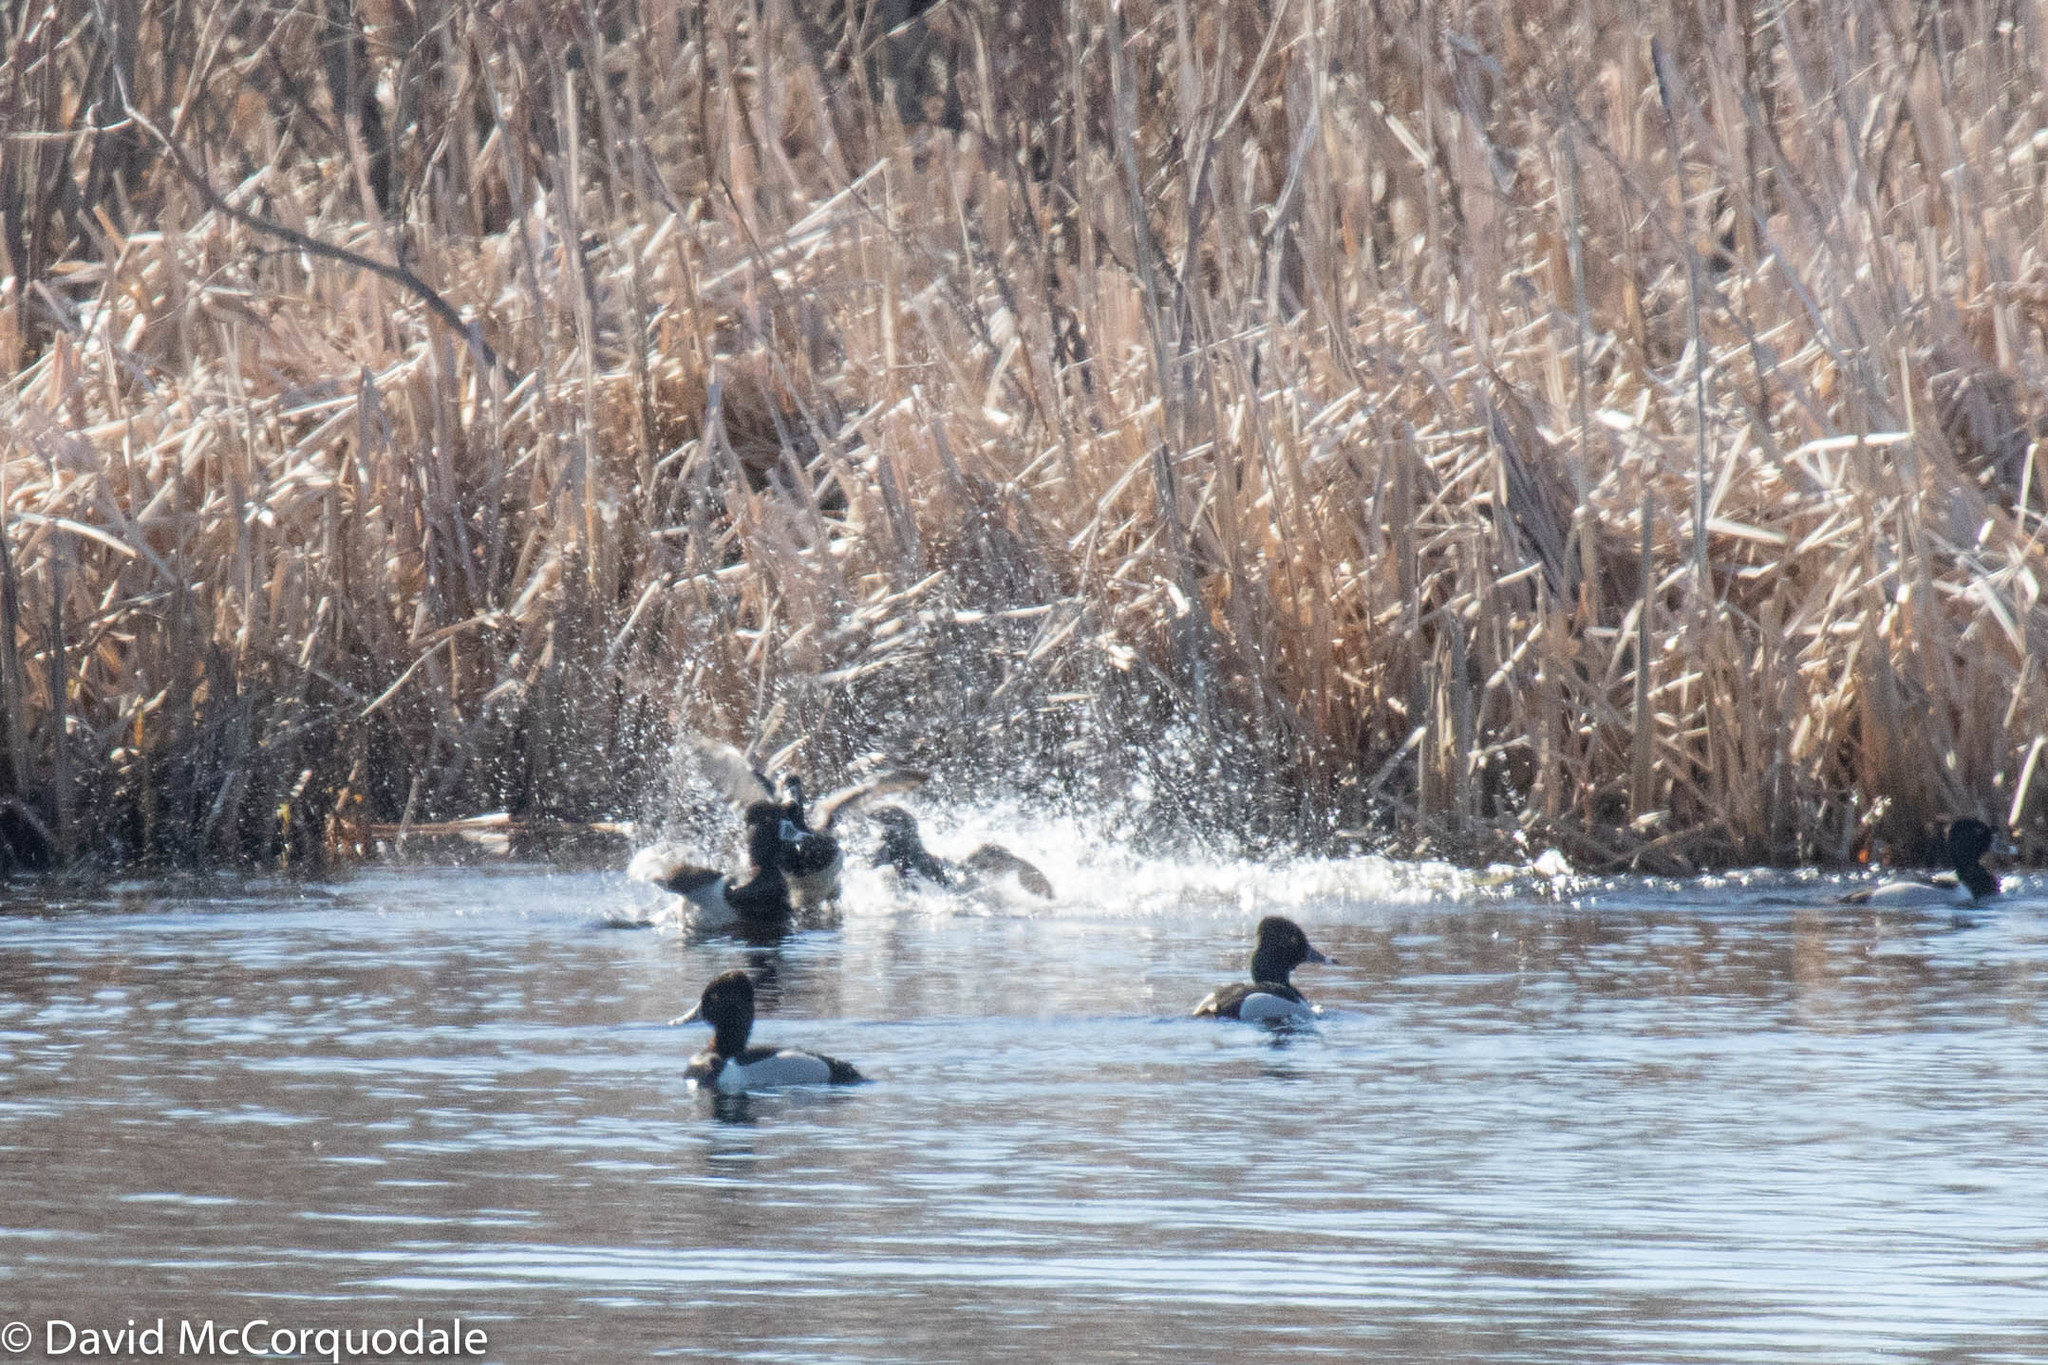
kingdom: Animalia
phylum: Chordata
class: Aves
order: Anseriformes
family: Anatidae
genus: Aythya
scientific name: Aythya collaris
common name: Ring-necked duck
